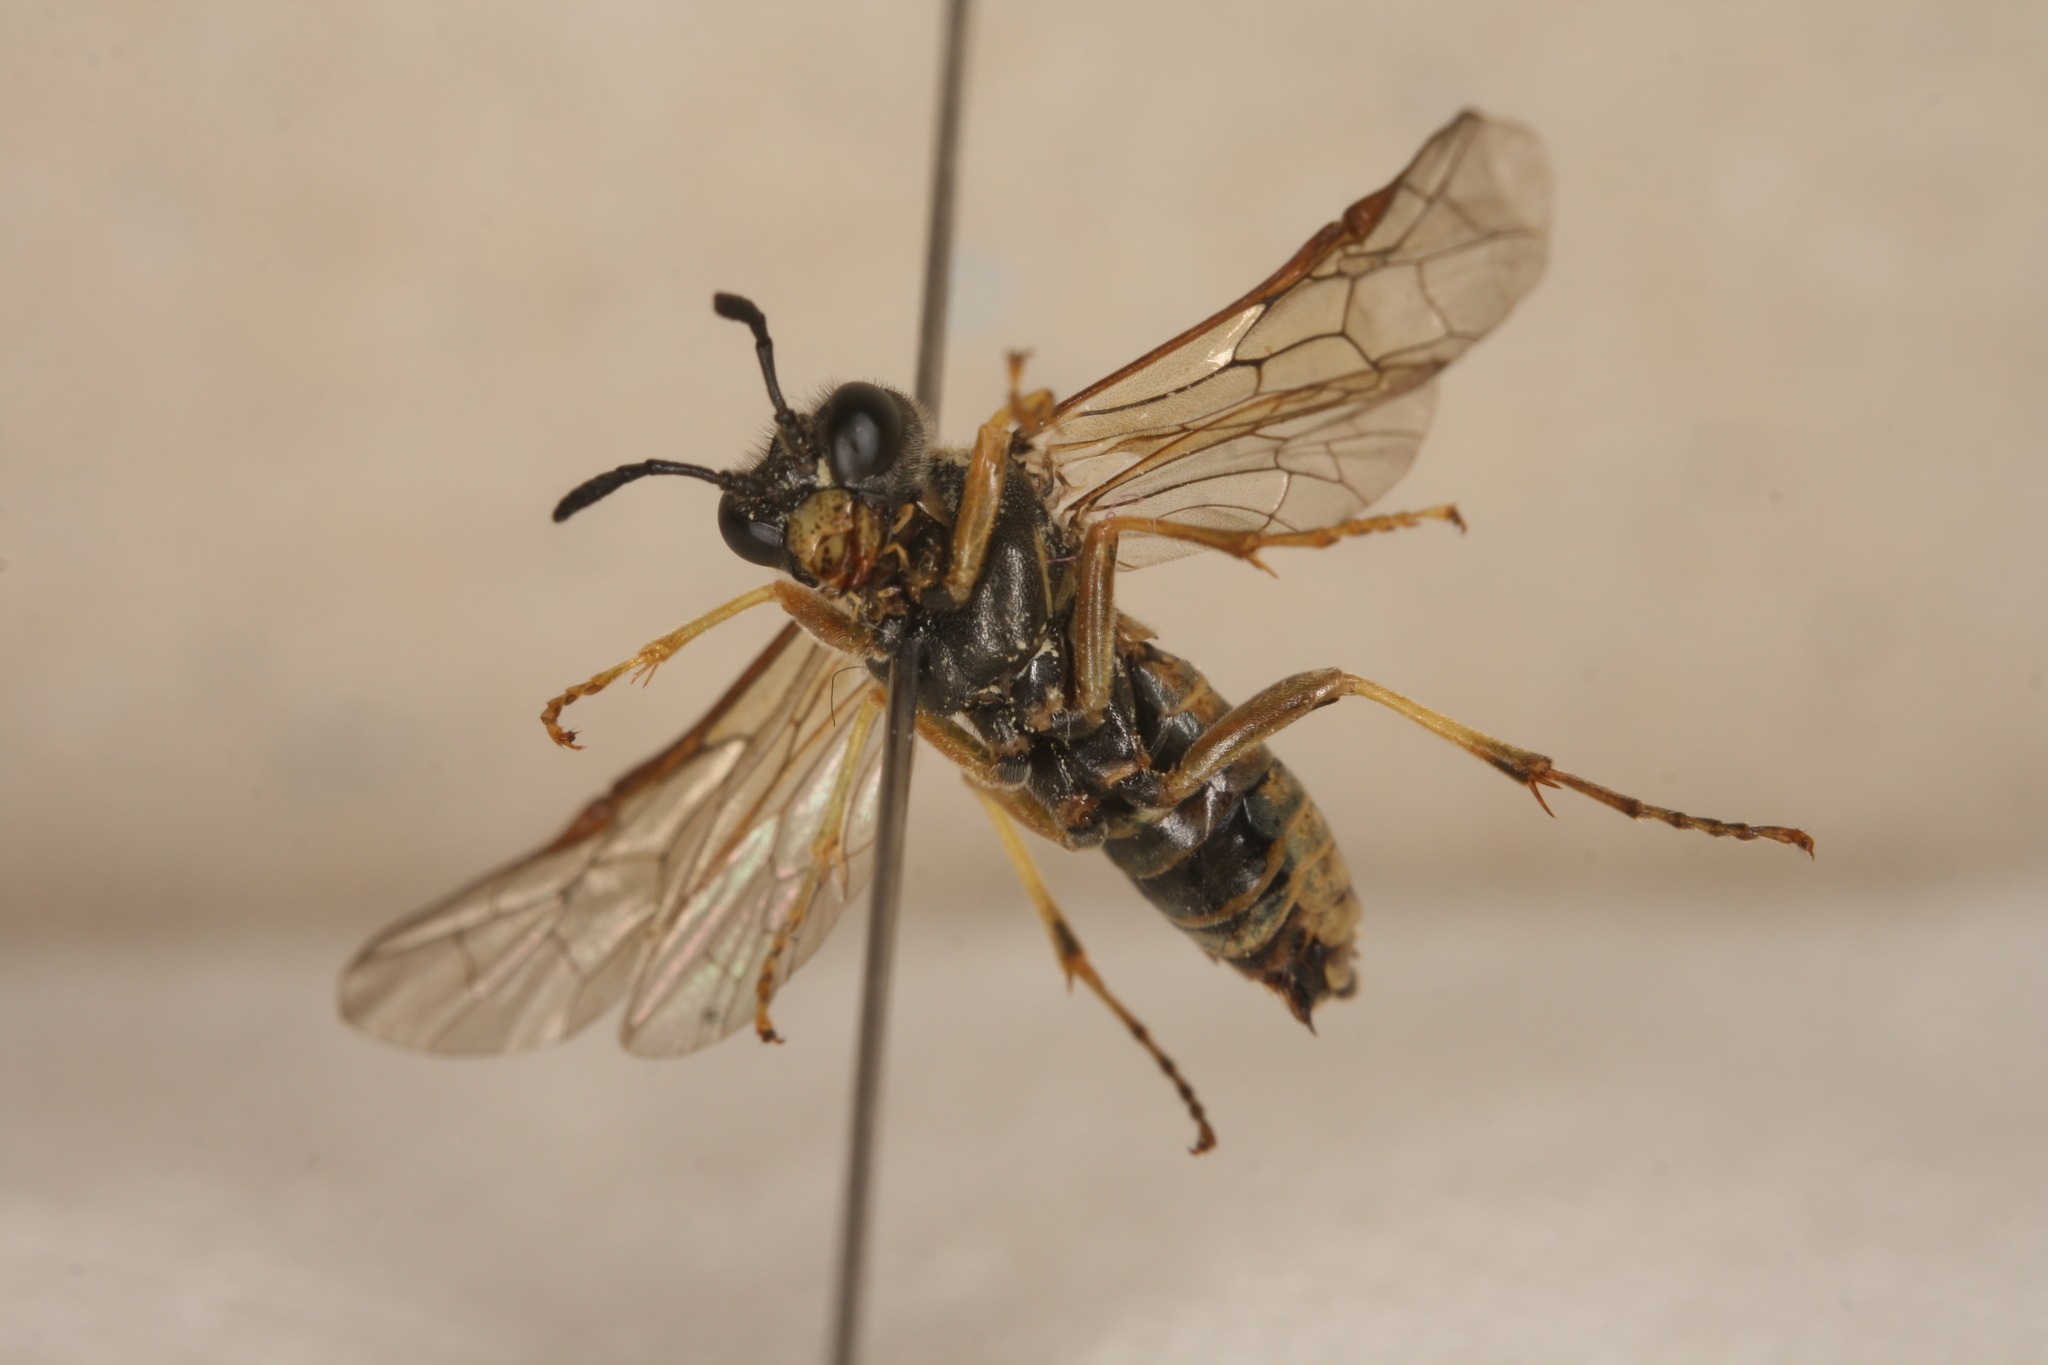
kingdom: Animalia
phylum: Arthropoda
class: Insecta
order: Hymenoptera
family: Tenthredinidae
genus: Tenthredo
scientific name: Tenthredo brevicornis
